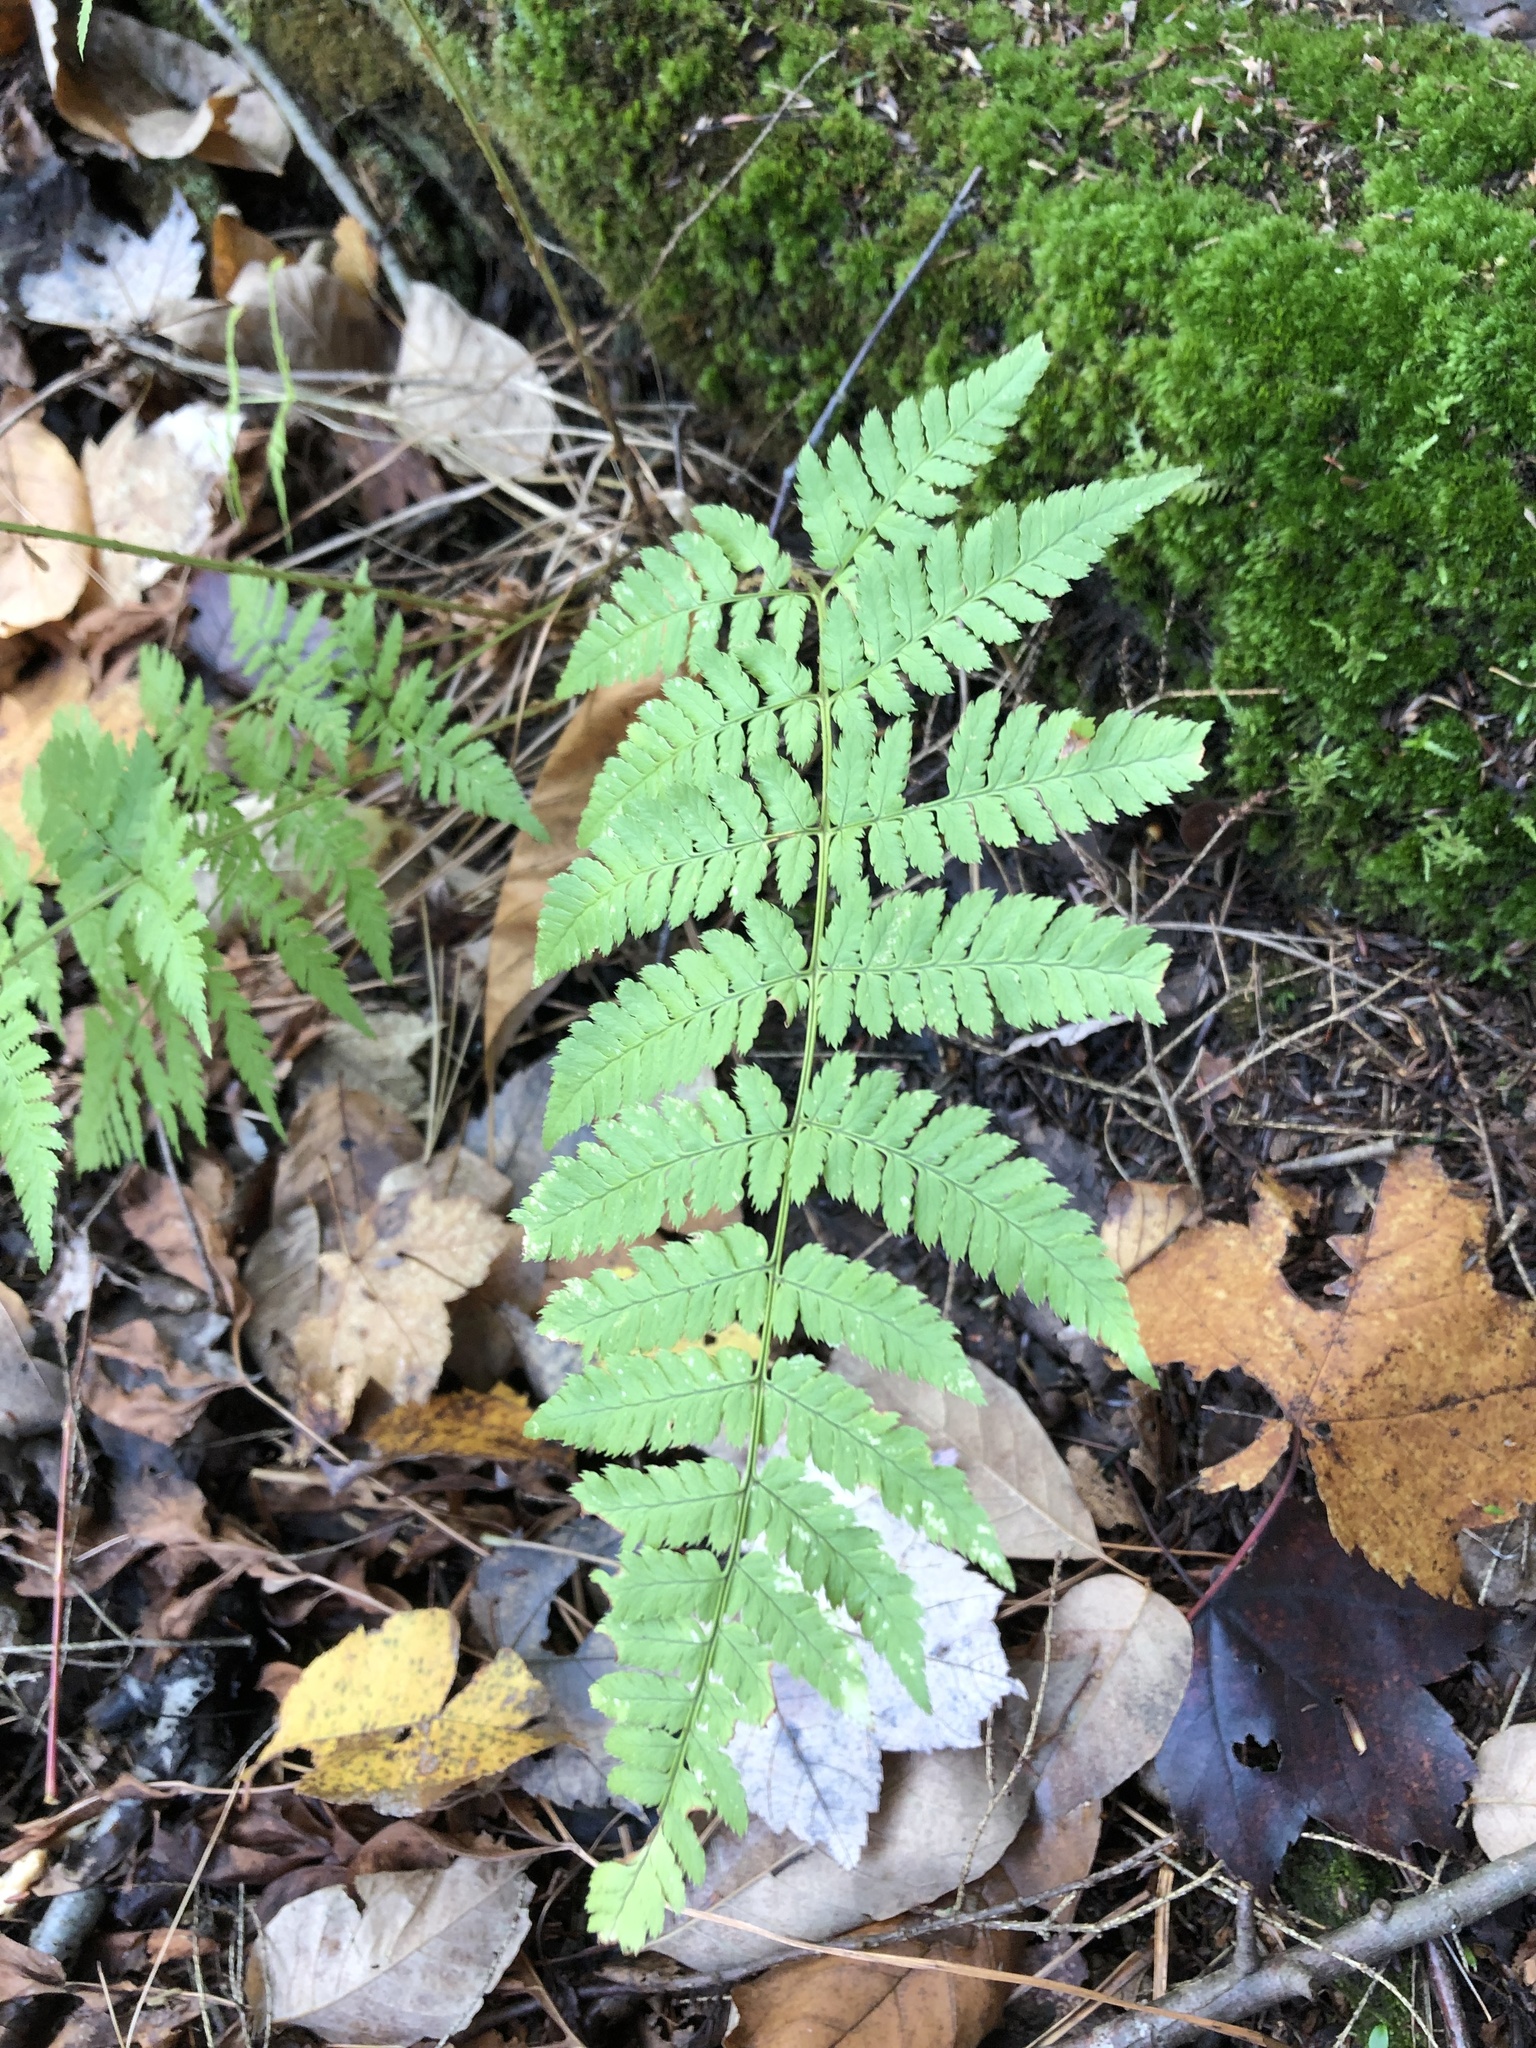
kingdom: Plantae
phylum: Tracheophyta
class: Polypodiopsida
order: Polypodiales
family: Dryopteridaceae
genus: Dryopteris
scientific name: Dryopteris carthusiana
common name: Narrow buckler-fern
